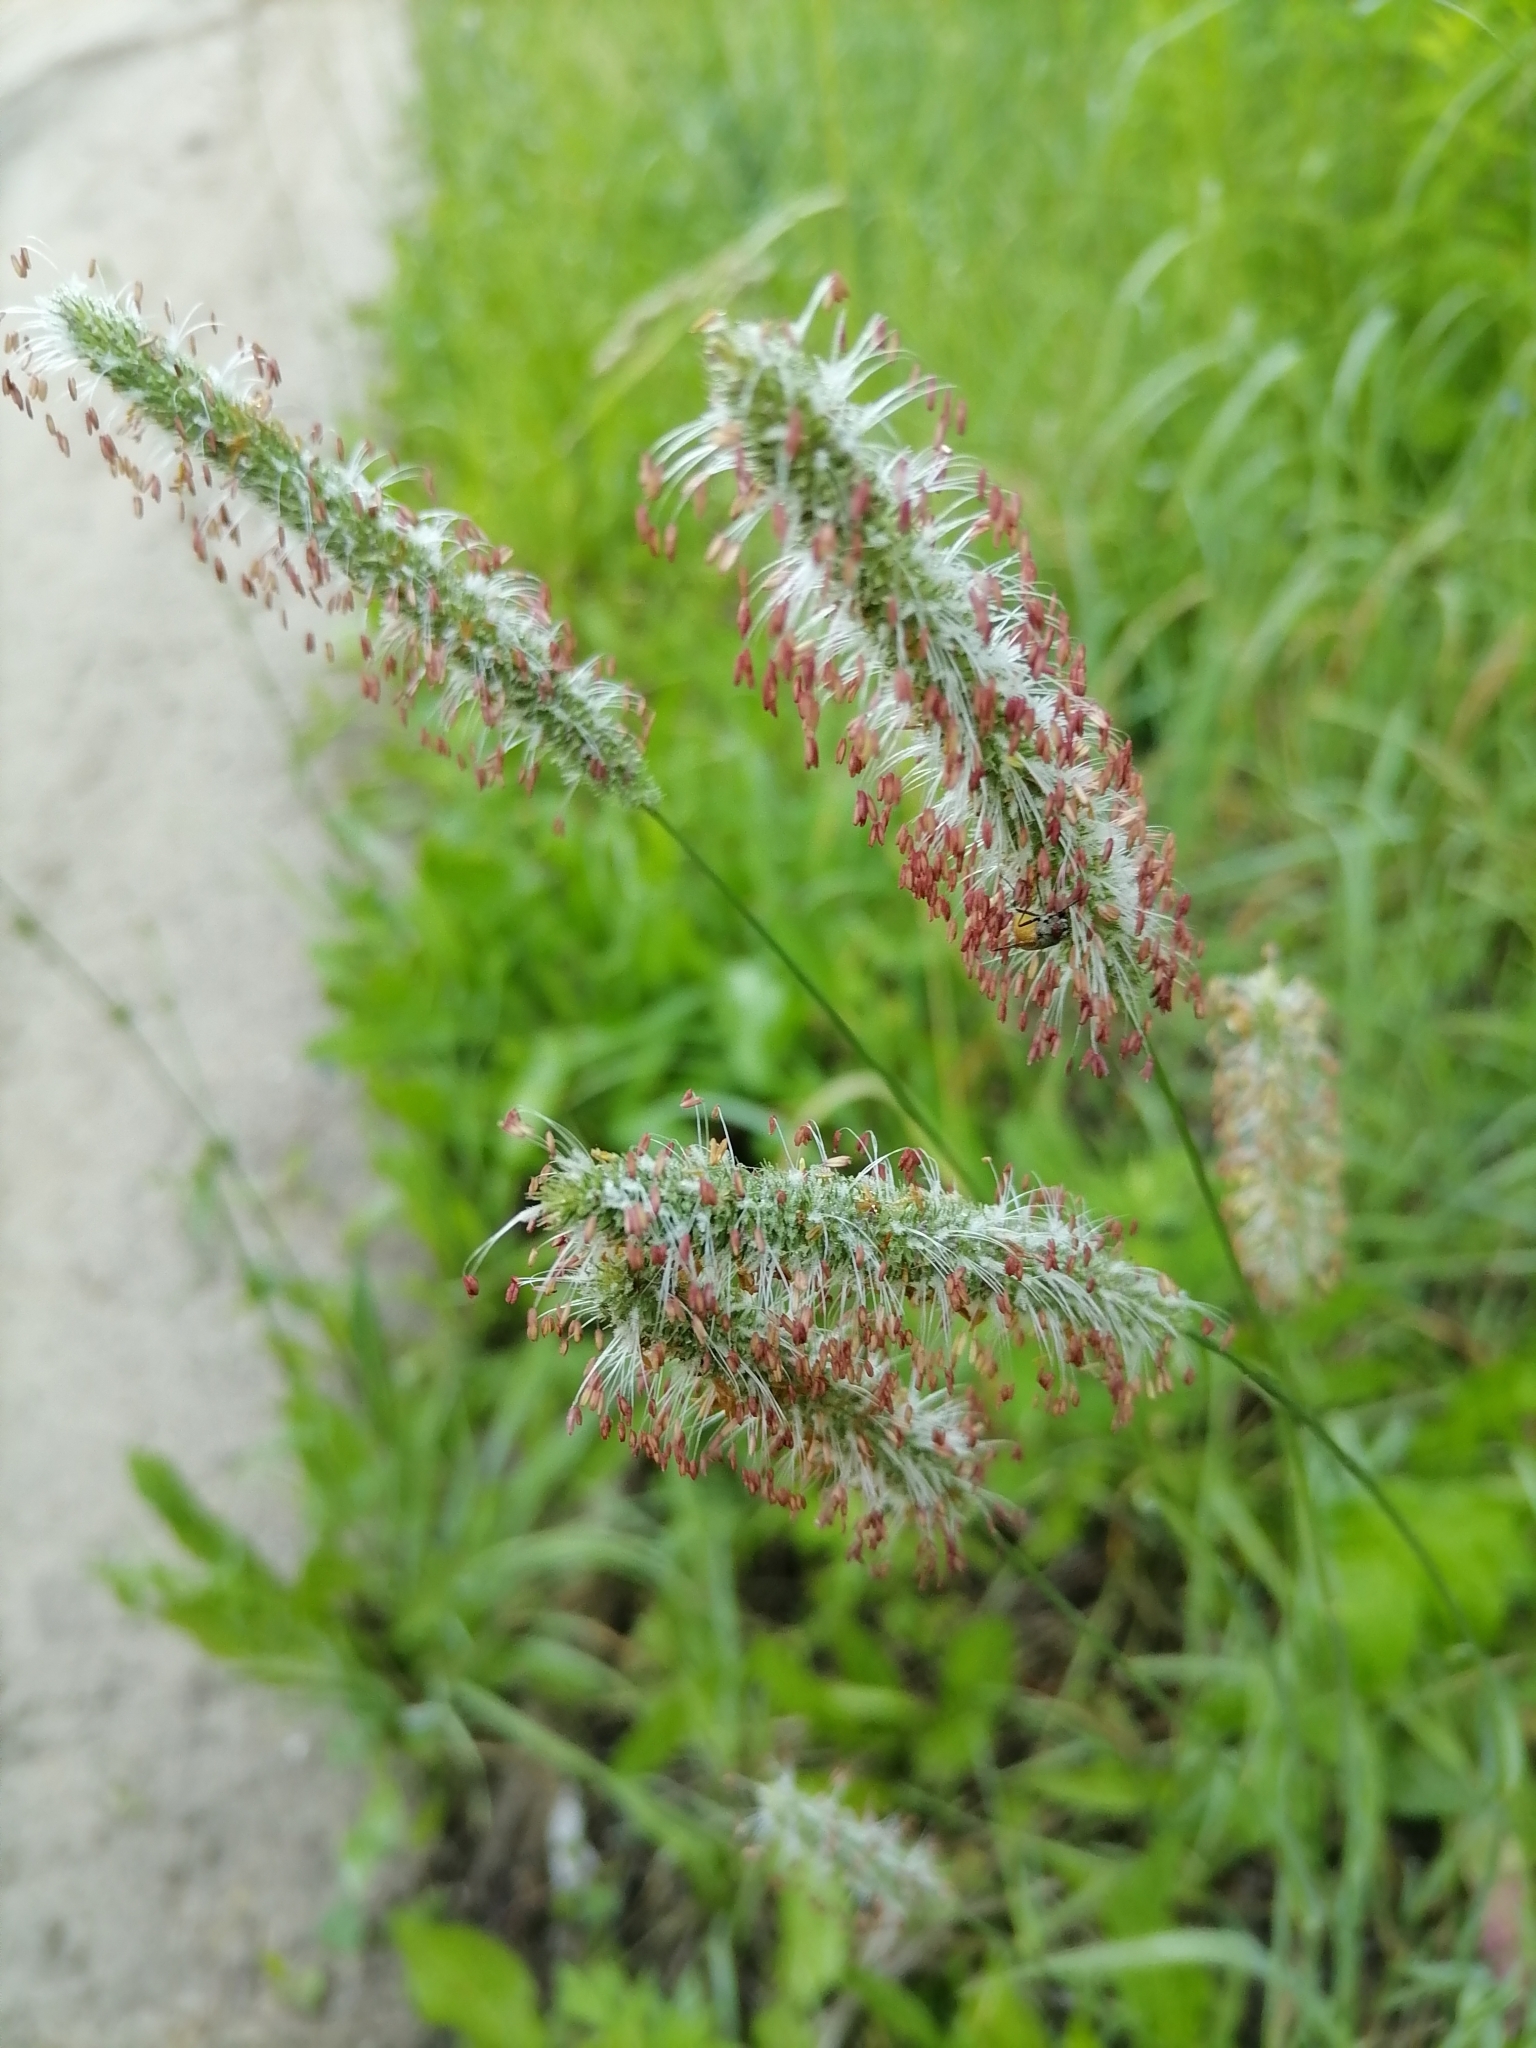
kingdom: Plantae
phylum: Tracheophyta
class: Liliopsida
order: Poales
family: Poaceae
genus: Phleum
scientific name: Phleum pratense
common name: Timothy grass
